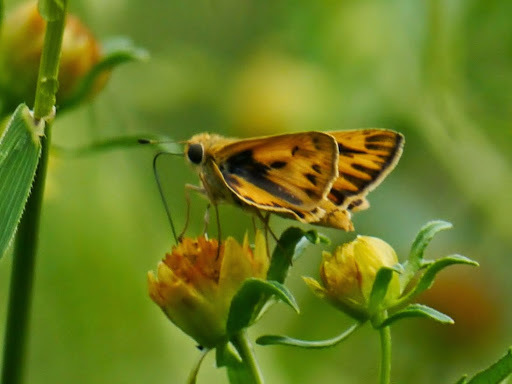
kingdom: Animalia
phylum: Arthropoda
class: Insecta
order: Lepidoptera
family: Hesperiidae
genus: Hylephila
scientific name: Hylephila phyleus
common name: Fiery skipper
